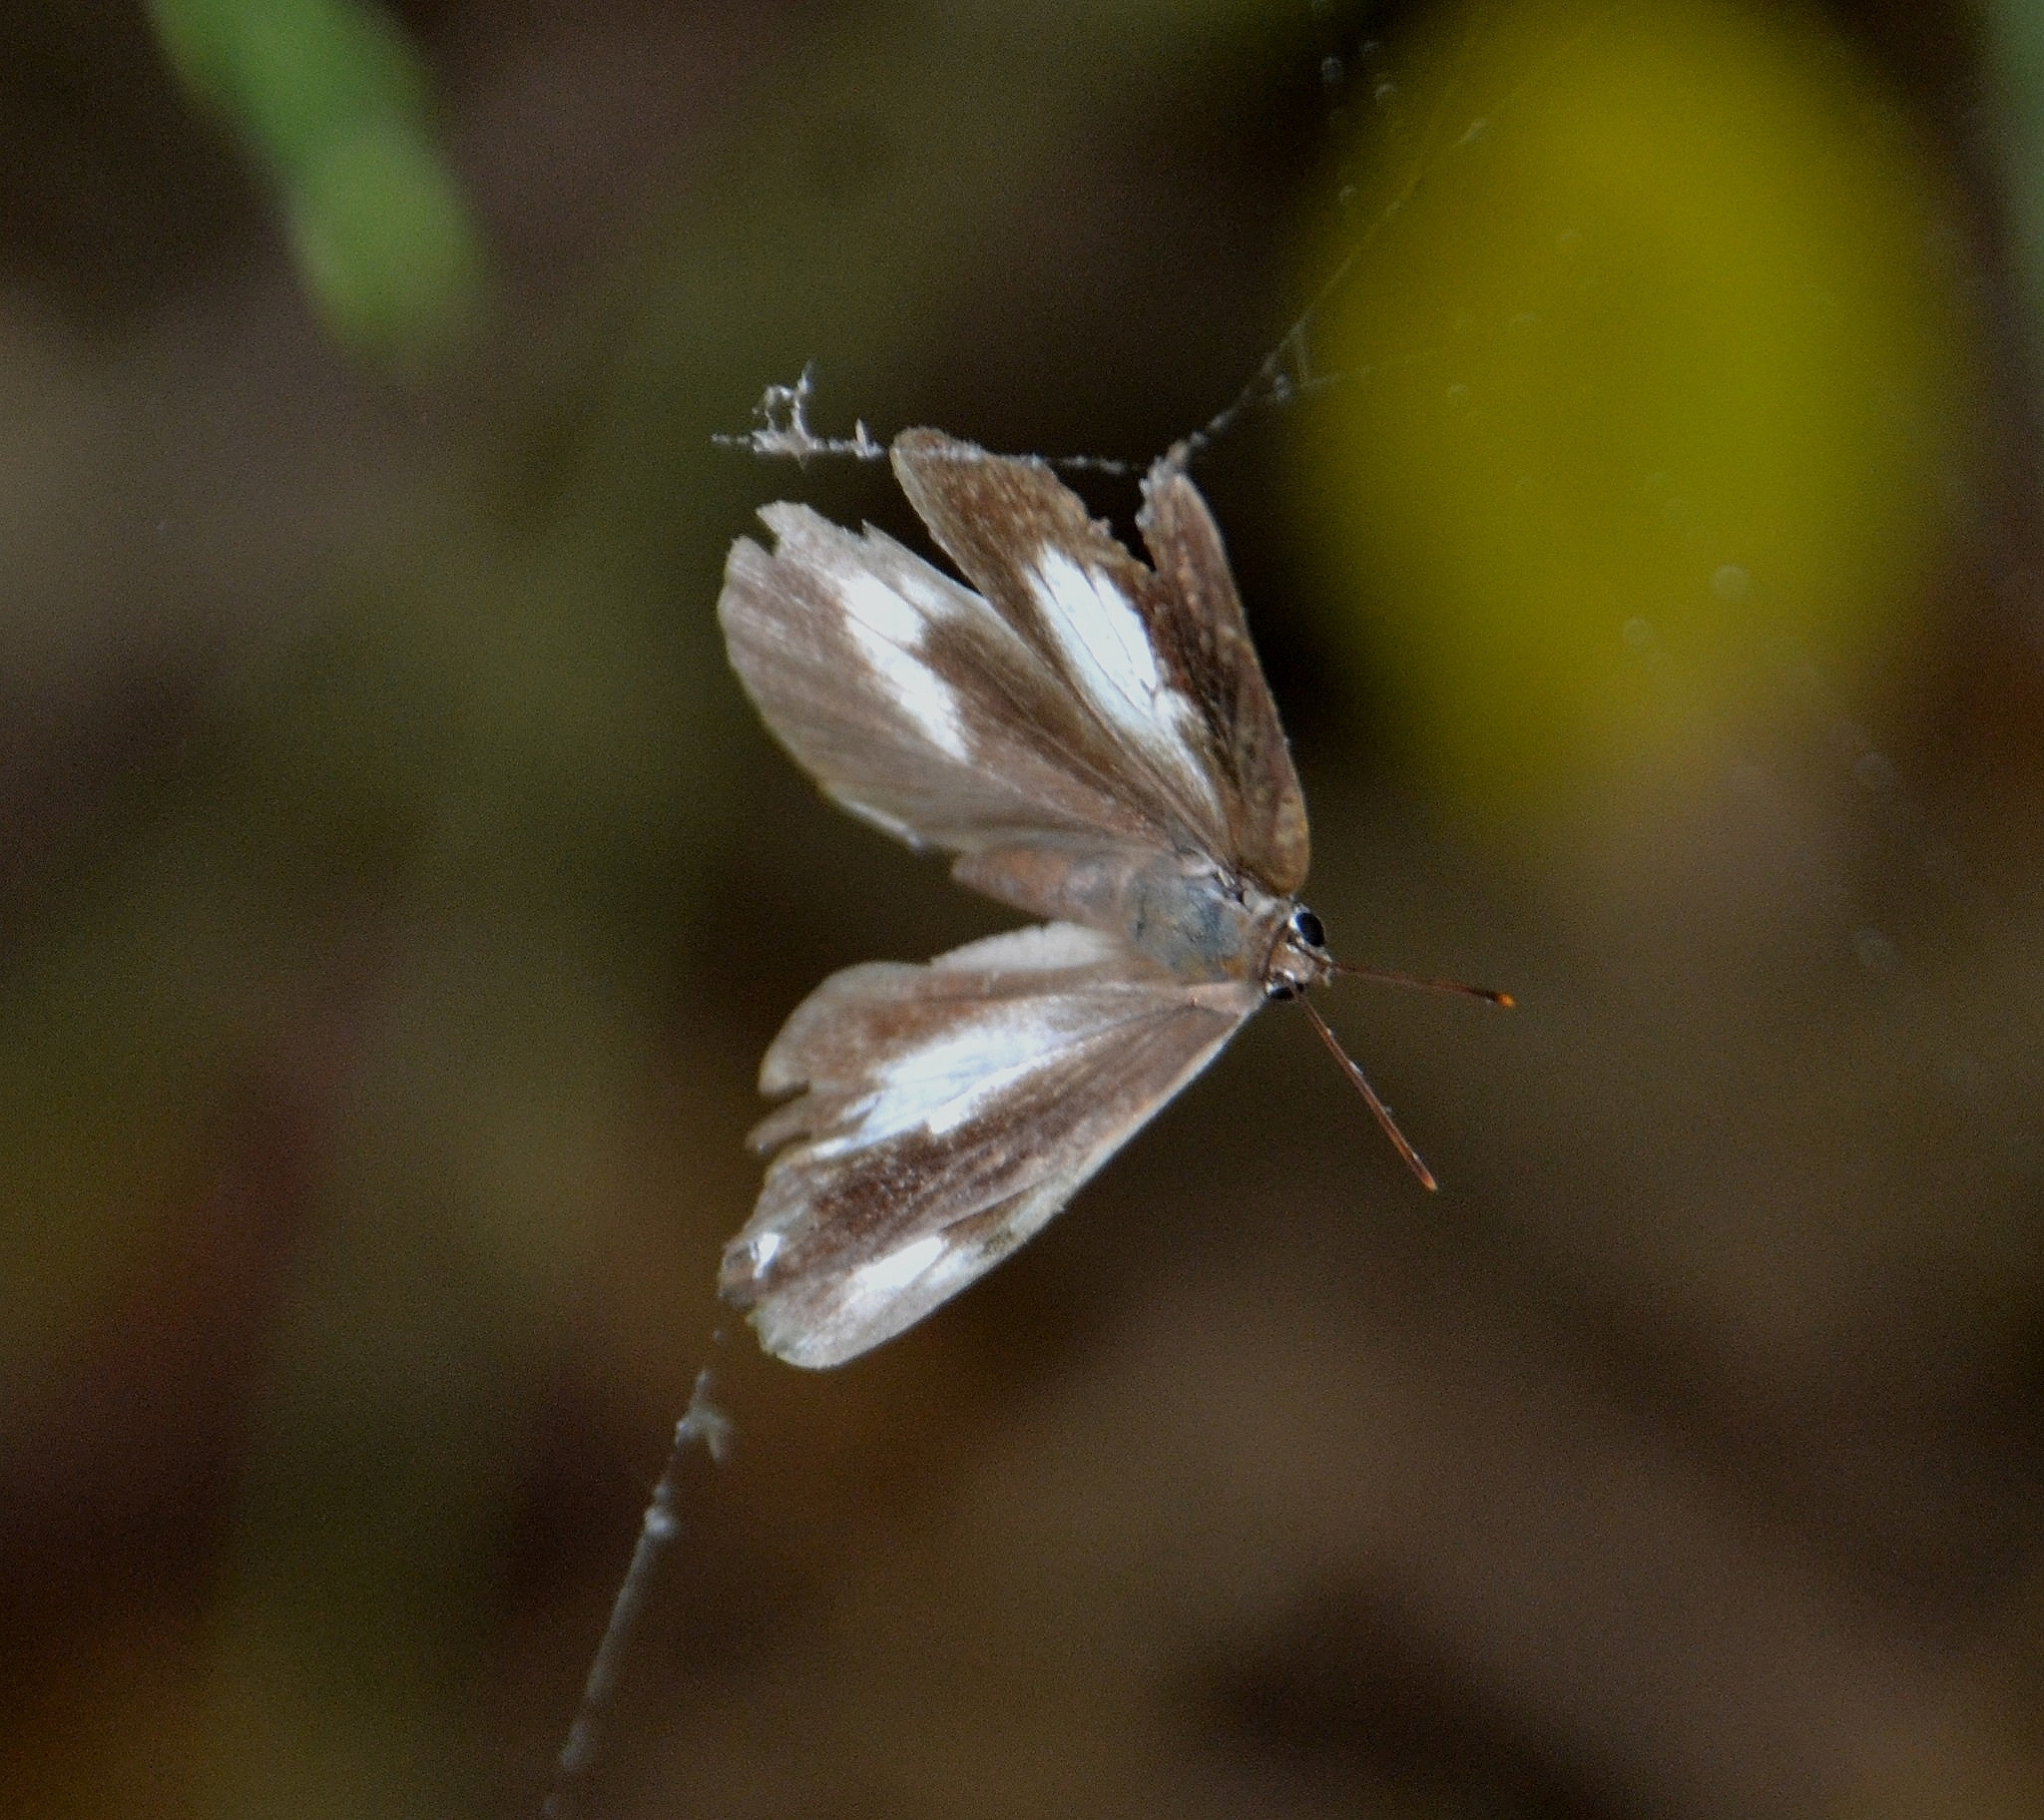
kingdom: Animalia
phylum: Arthropoda
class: Insecta
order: Lepidoptera
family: Lycaenidae
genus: Curetis
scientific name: Curetis thetis
